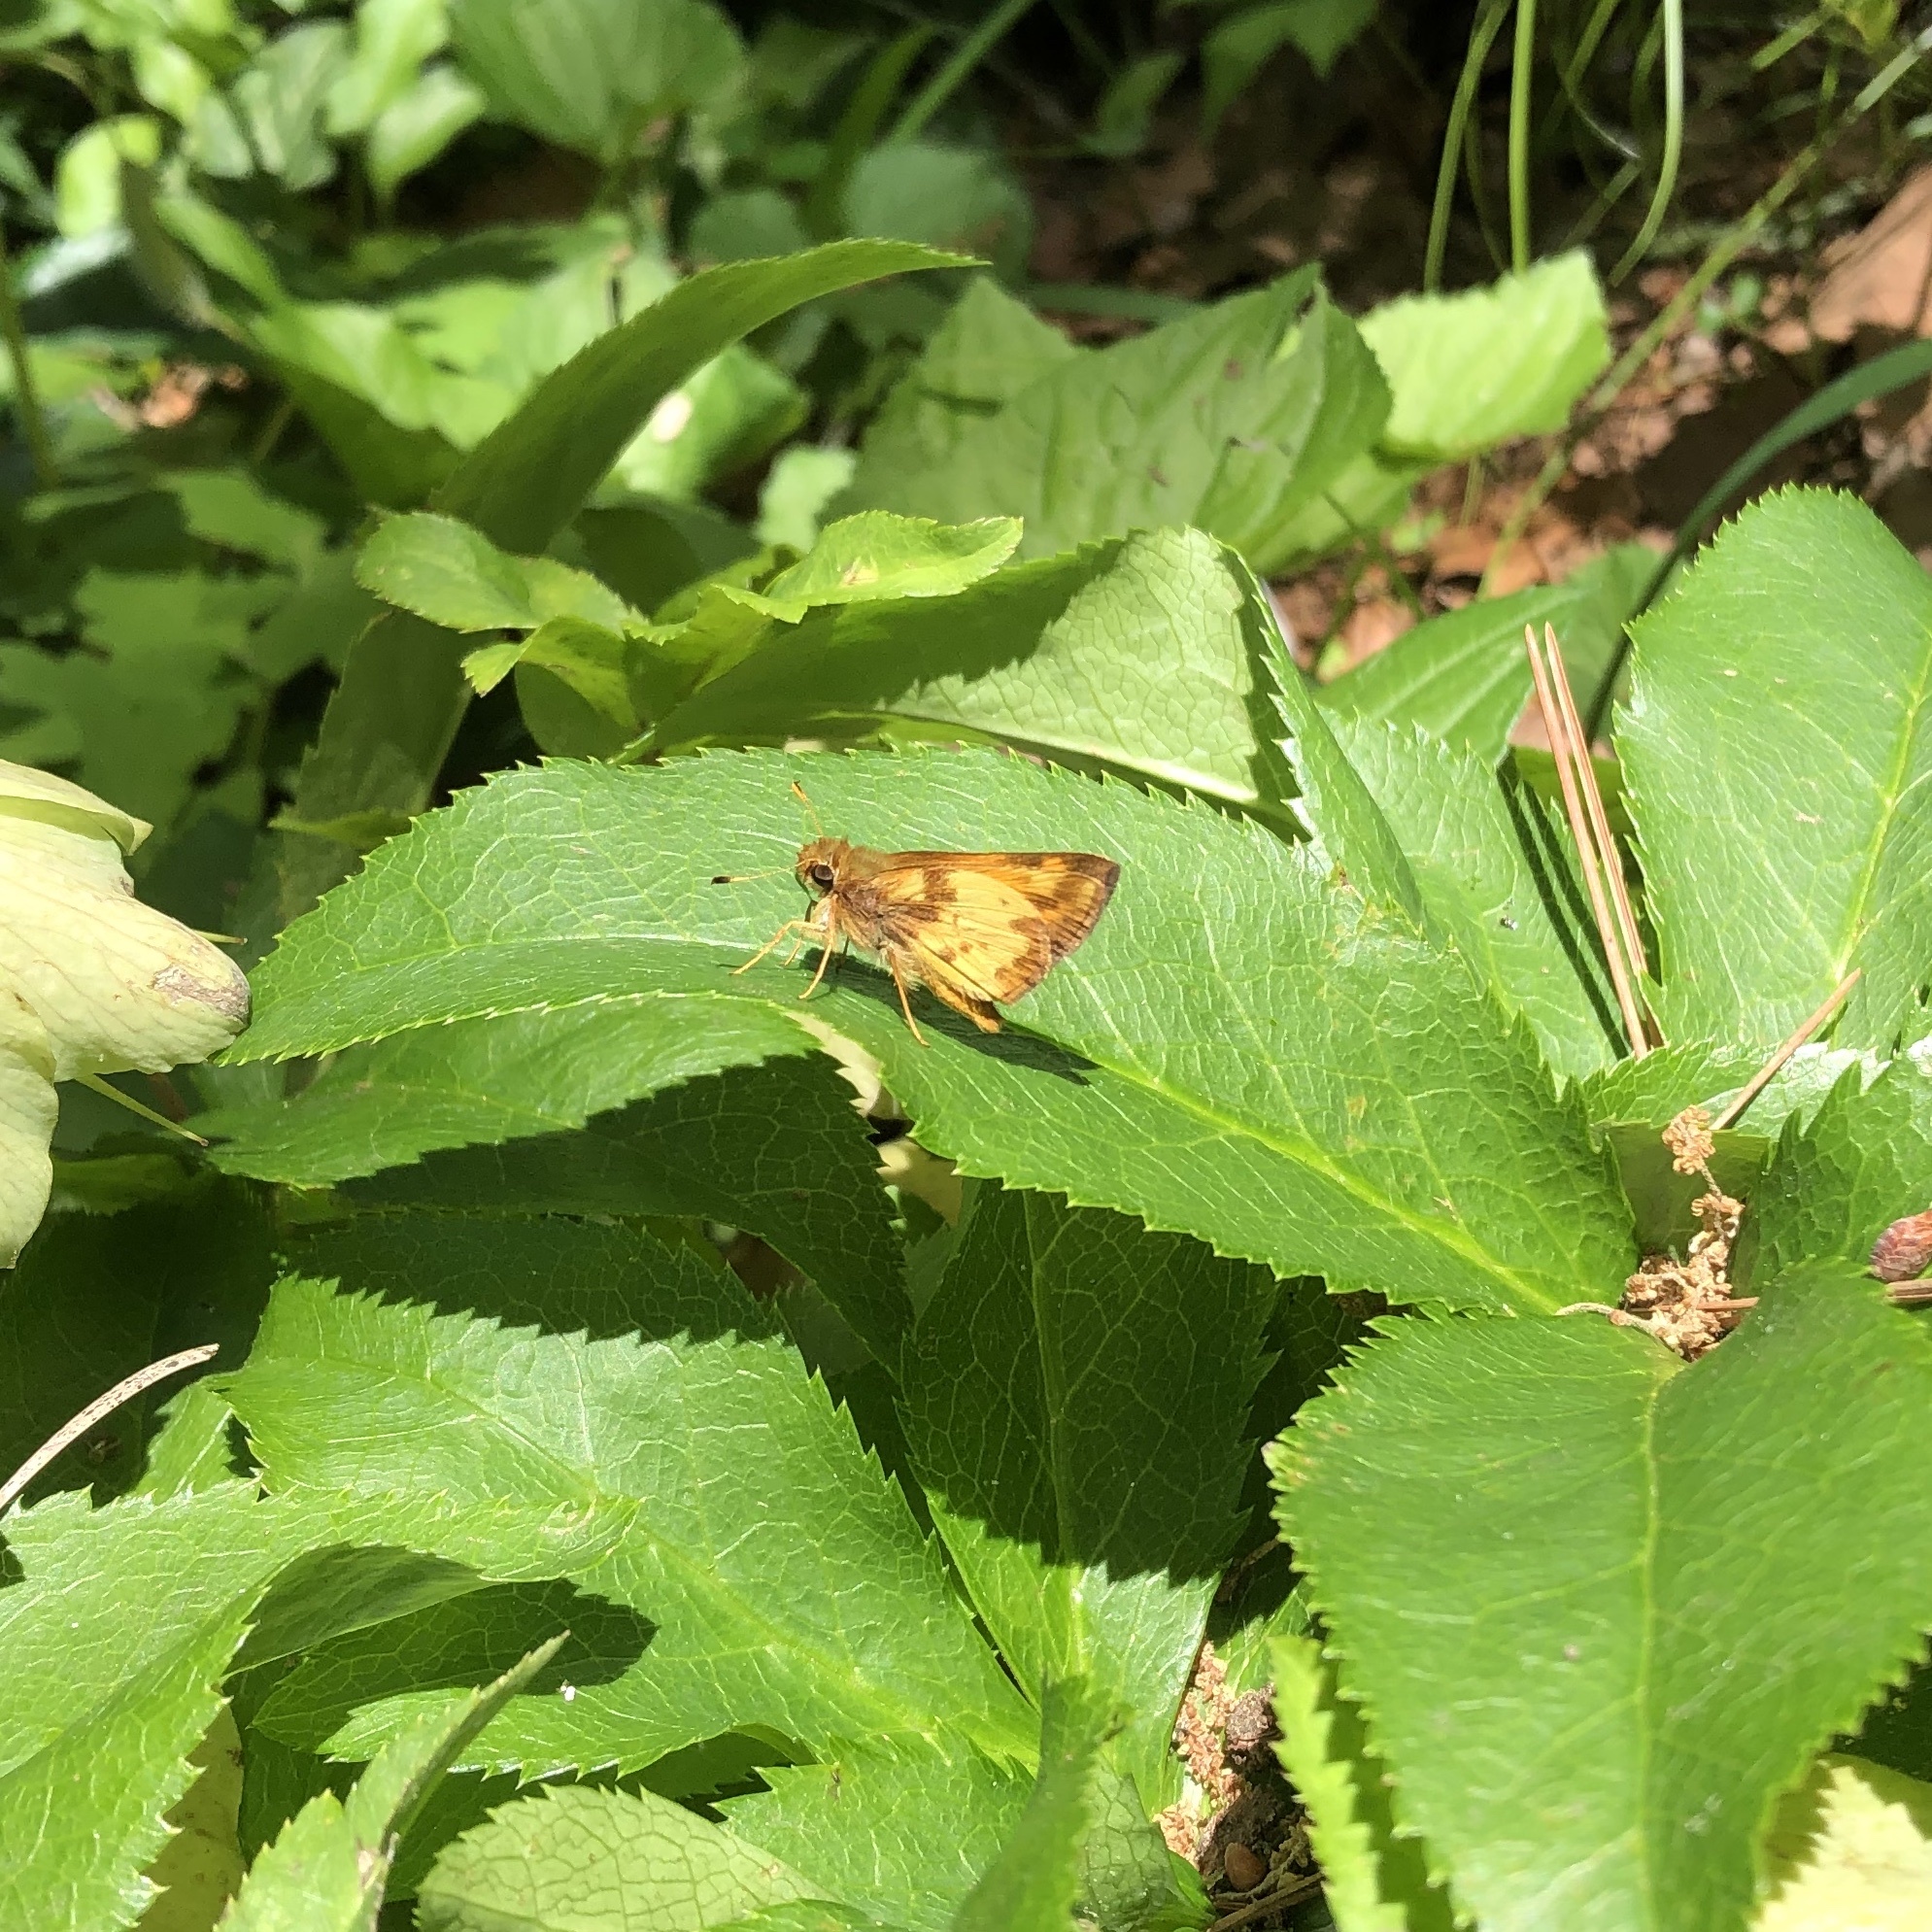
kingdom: Animalia
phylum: Arthropoda
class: Insecta
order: Lepidoptera
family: Hesperiidae
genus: Lon
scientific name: Lon zabulon
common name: Zabulon skipper
